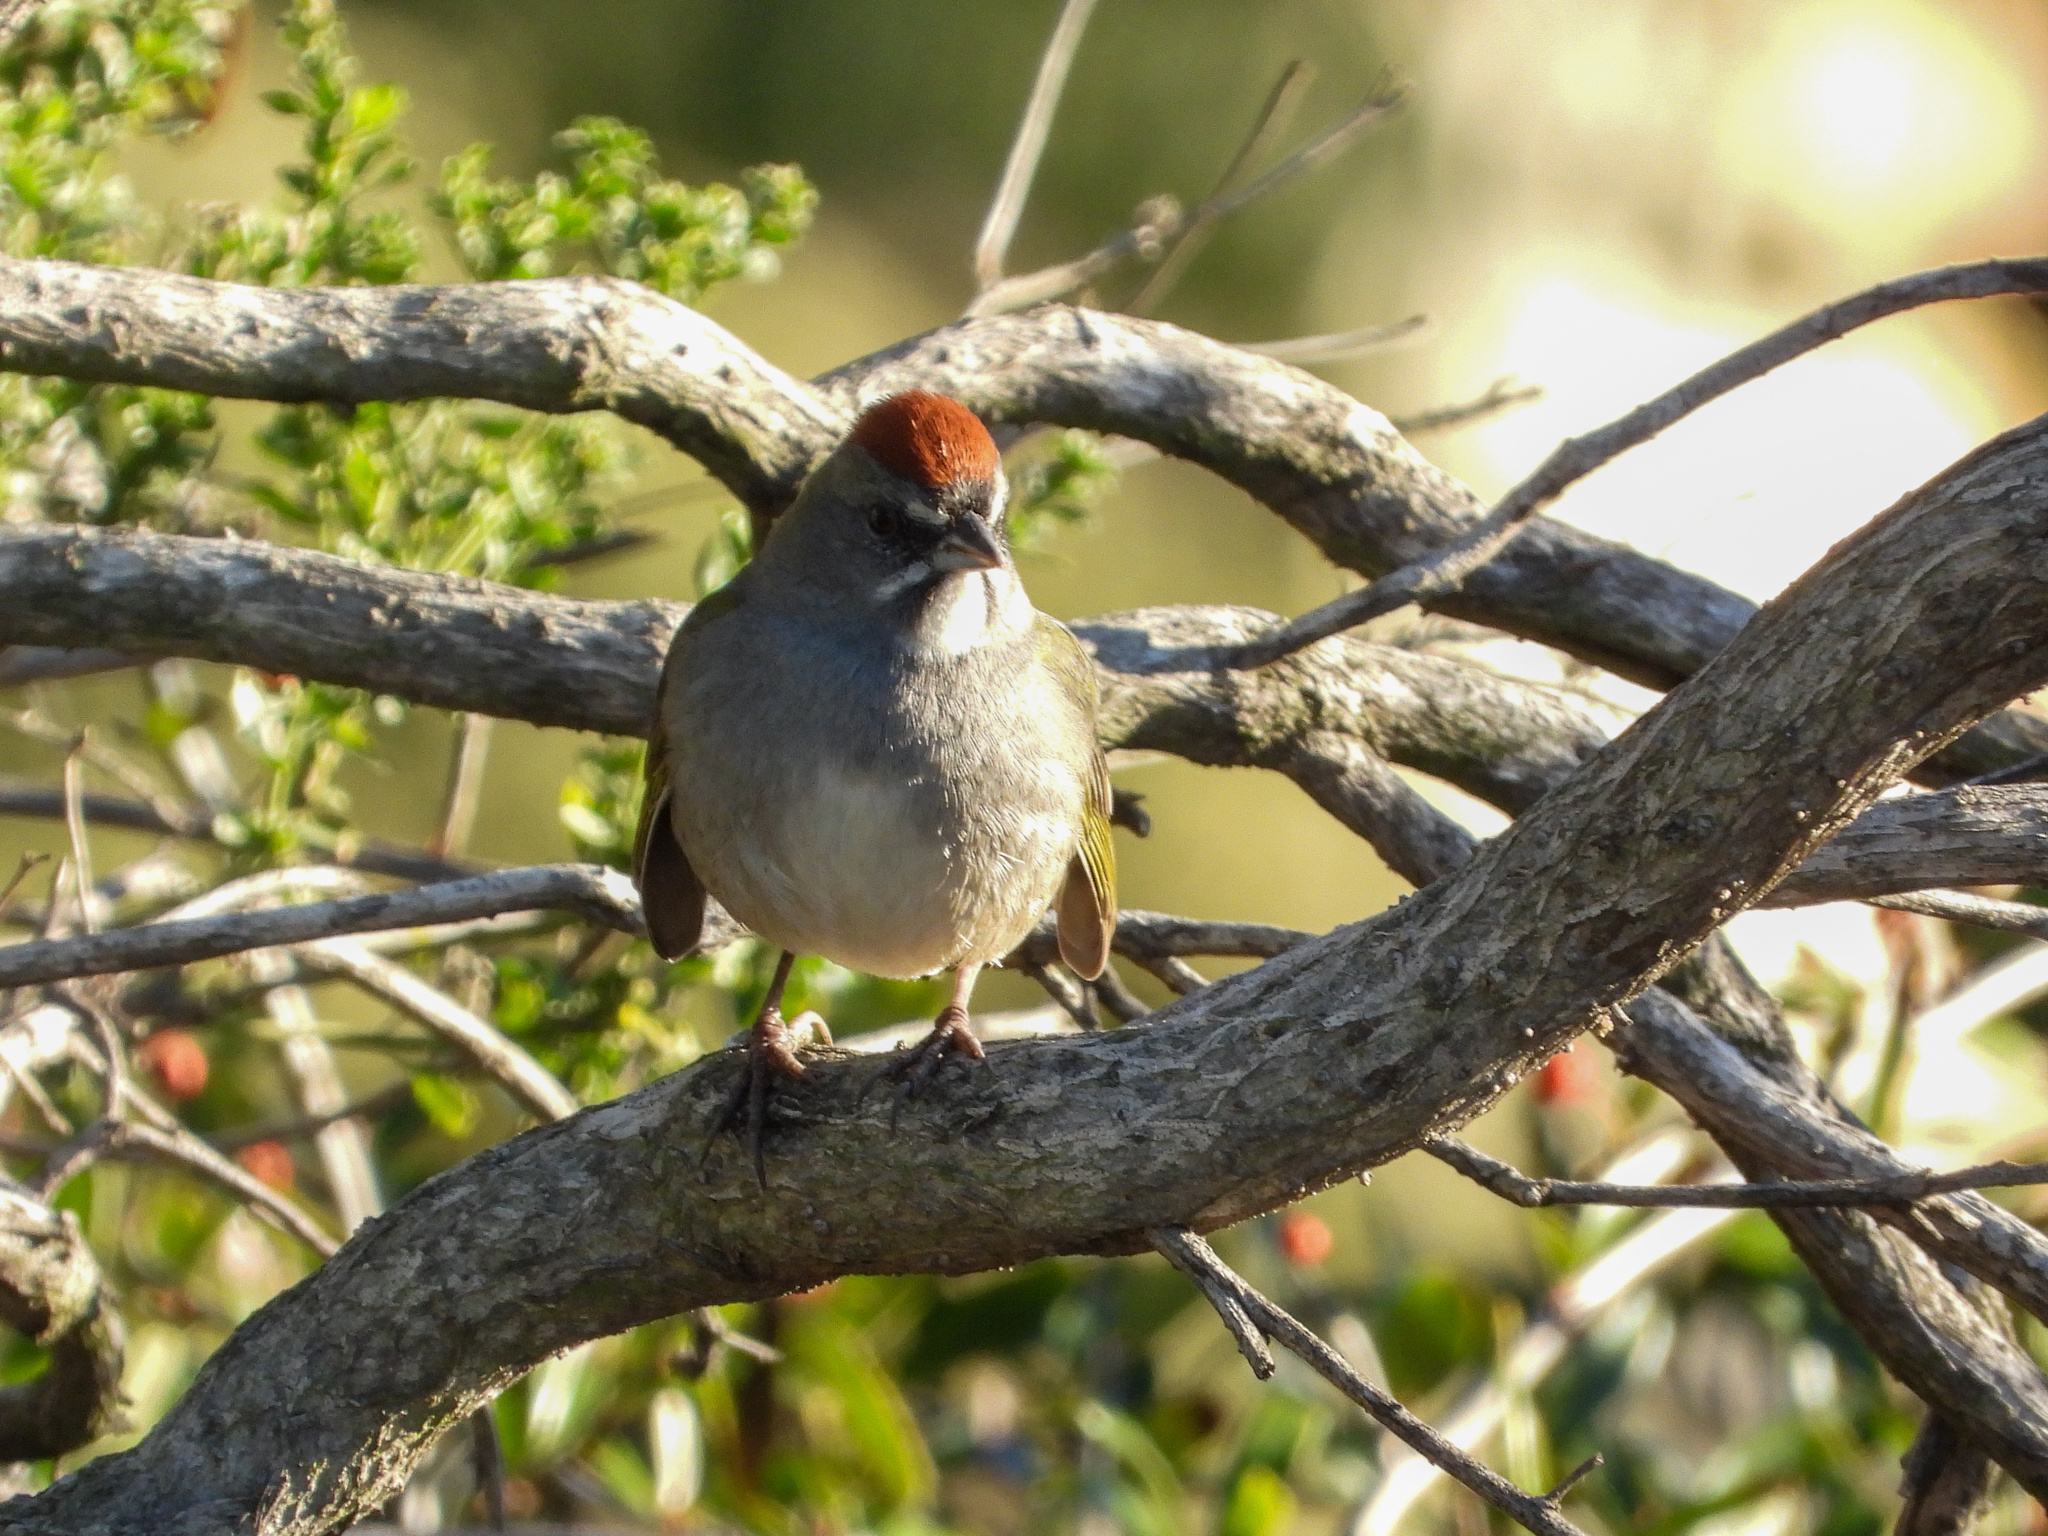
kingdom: Animalia
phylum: Chordata
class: Aves
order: Passeriformes
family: Passerellidae
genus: Pipilo
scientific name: Pipilo chlorurus
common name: Green-tailed towhee
